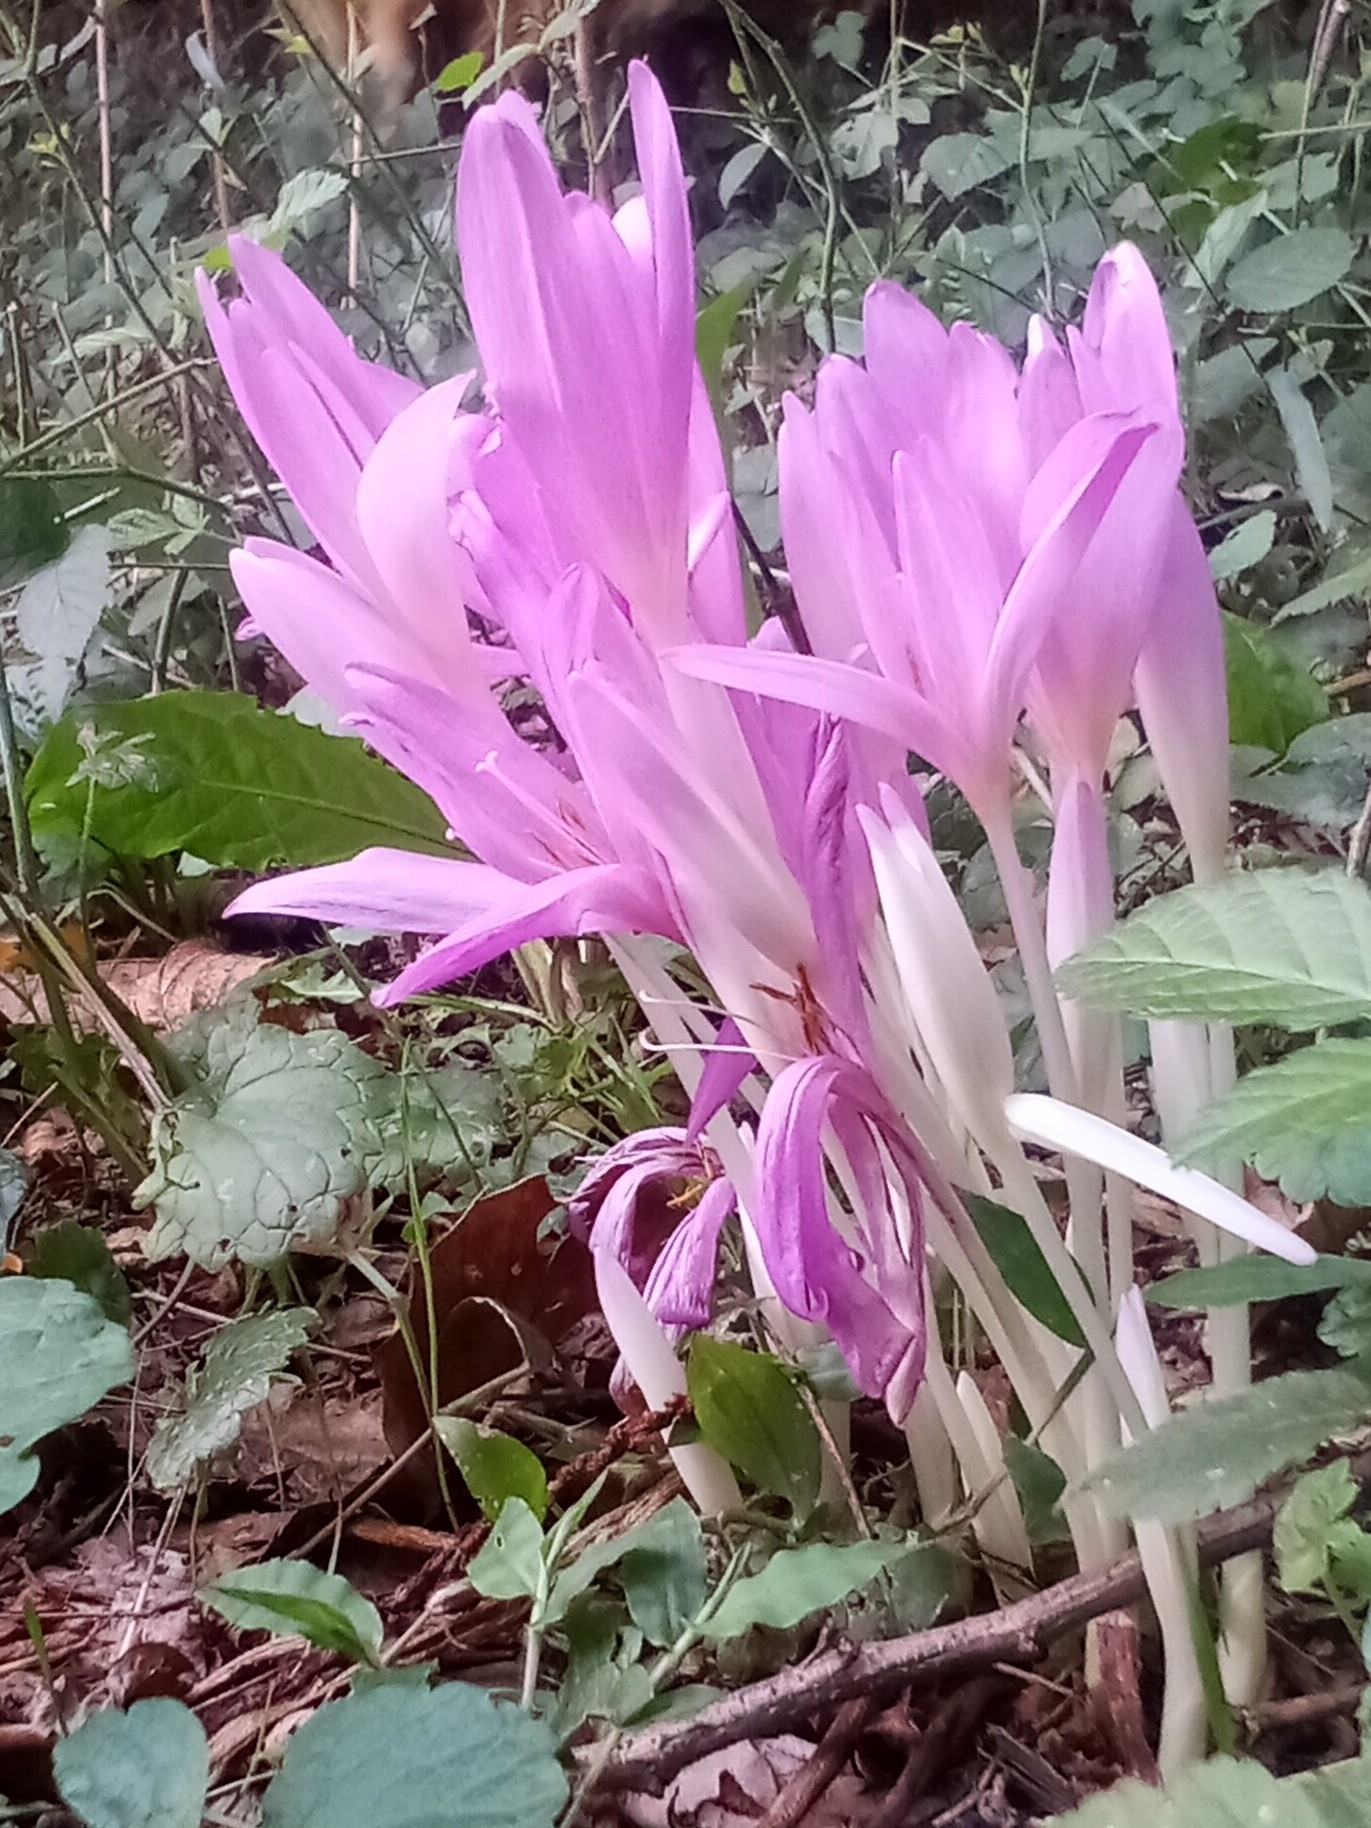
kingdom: Plantae
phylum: Tracheophyta
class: Liliopsida
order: Liliales
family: Colchicaceae
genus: Colchicum
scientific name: Colchicum autumnale
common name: Autumn crocus
